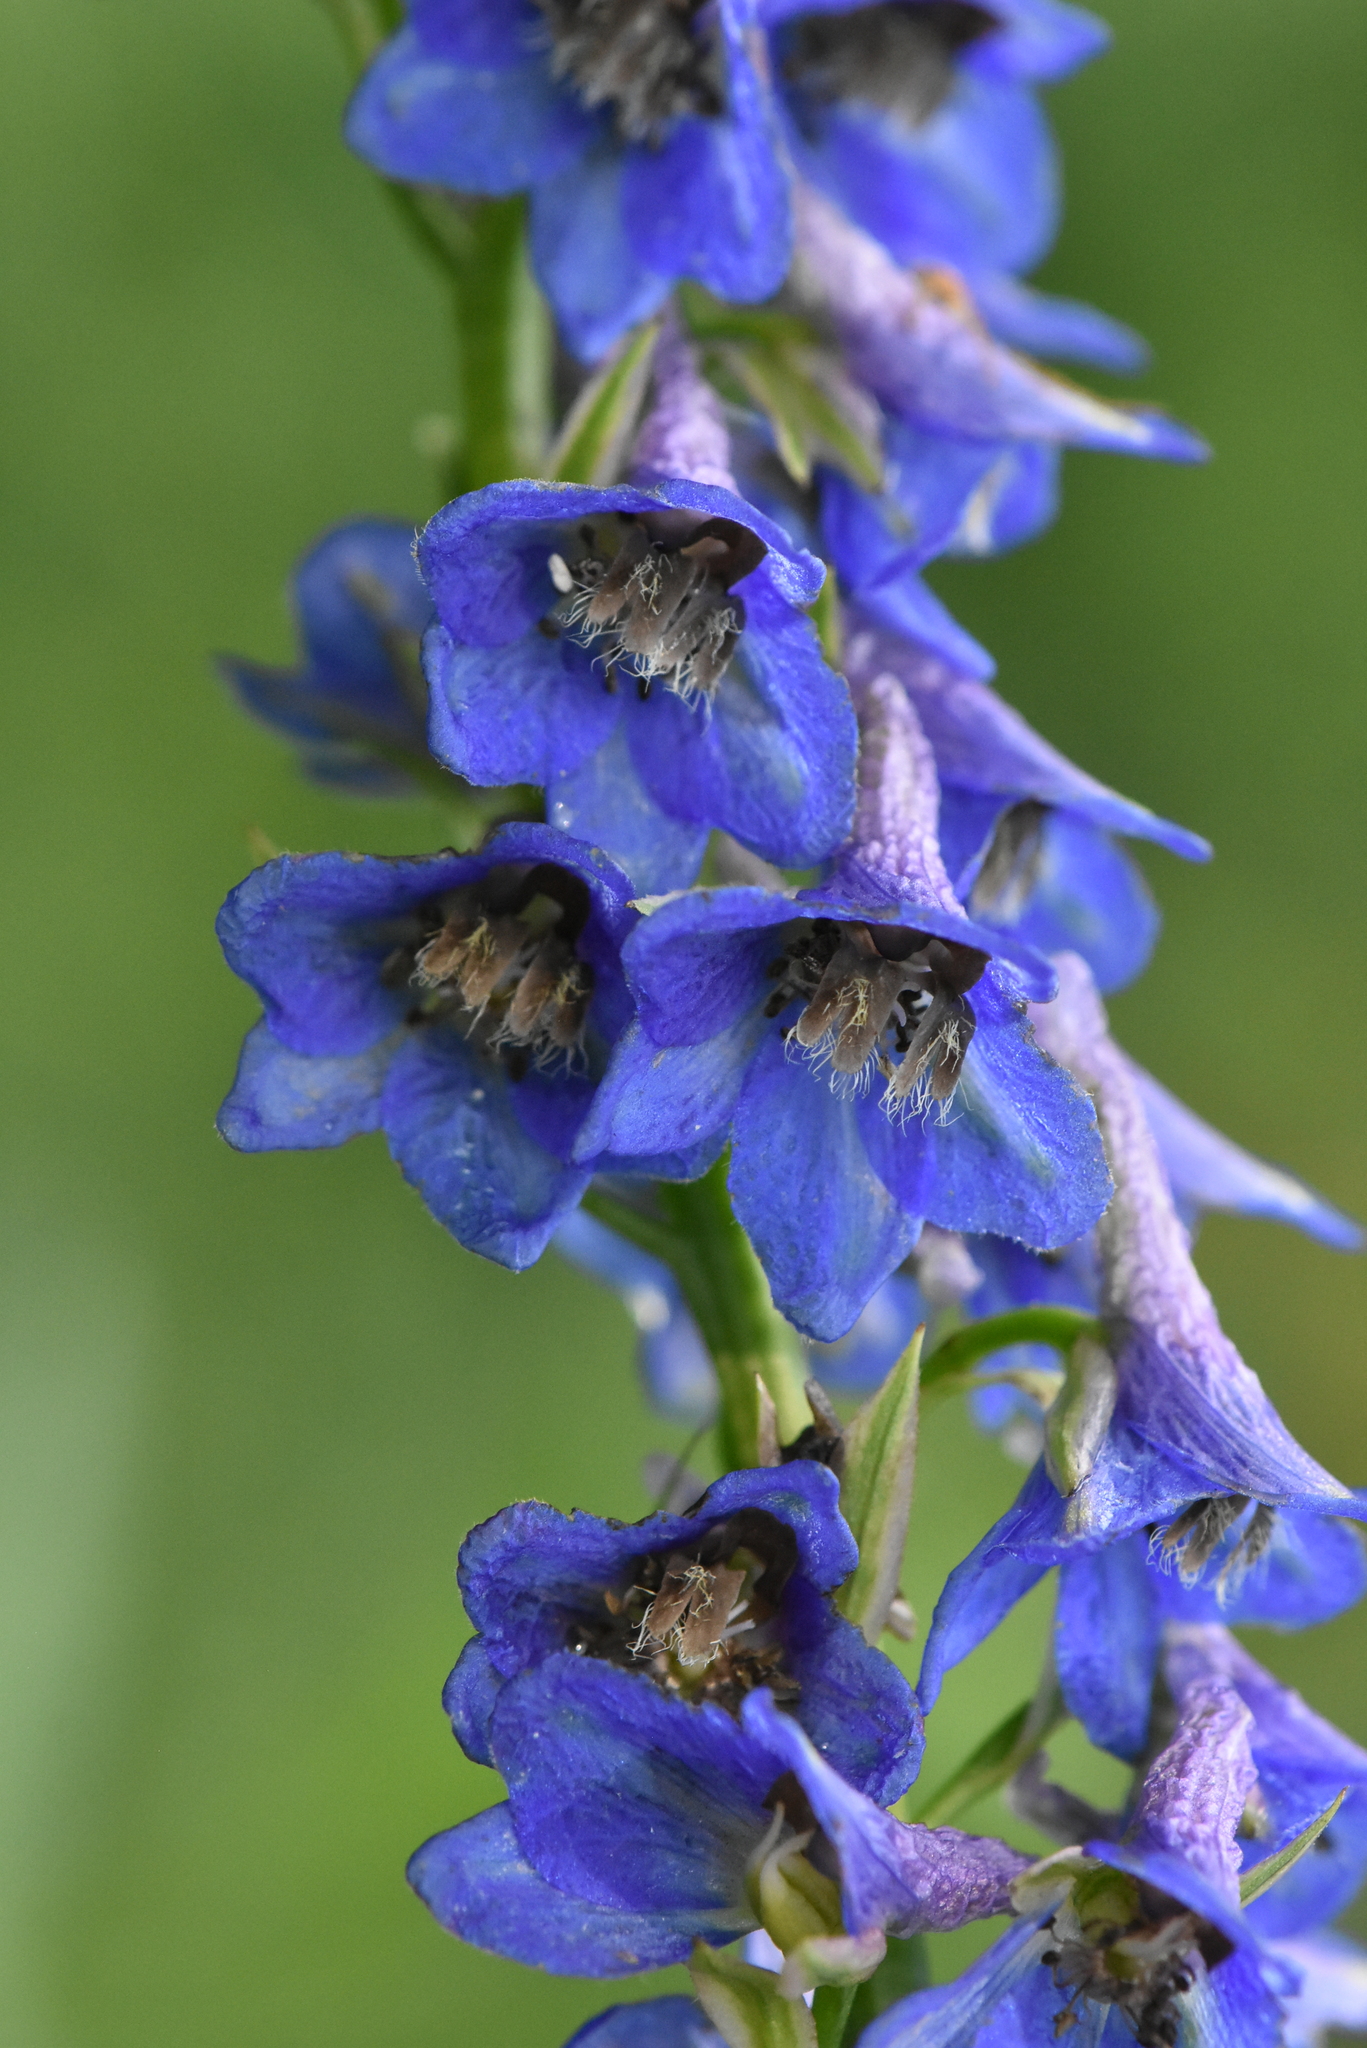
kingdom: Plantae
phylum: Tracheophyta
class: Magnoliopsida
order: Ranunculales
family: Ranunculaceae
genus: Delphinium
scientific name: Delphinium retropilosum
